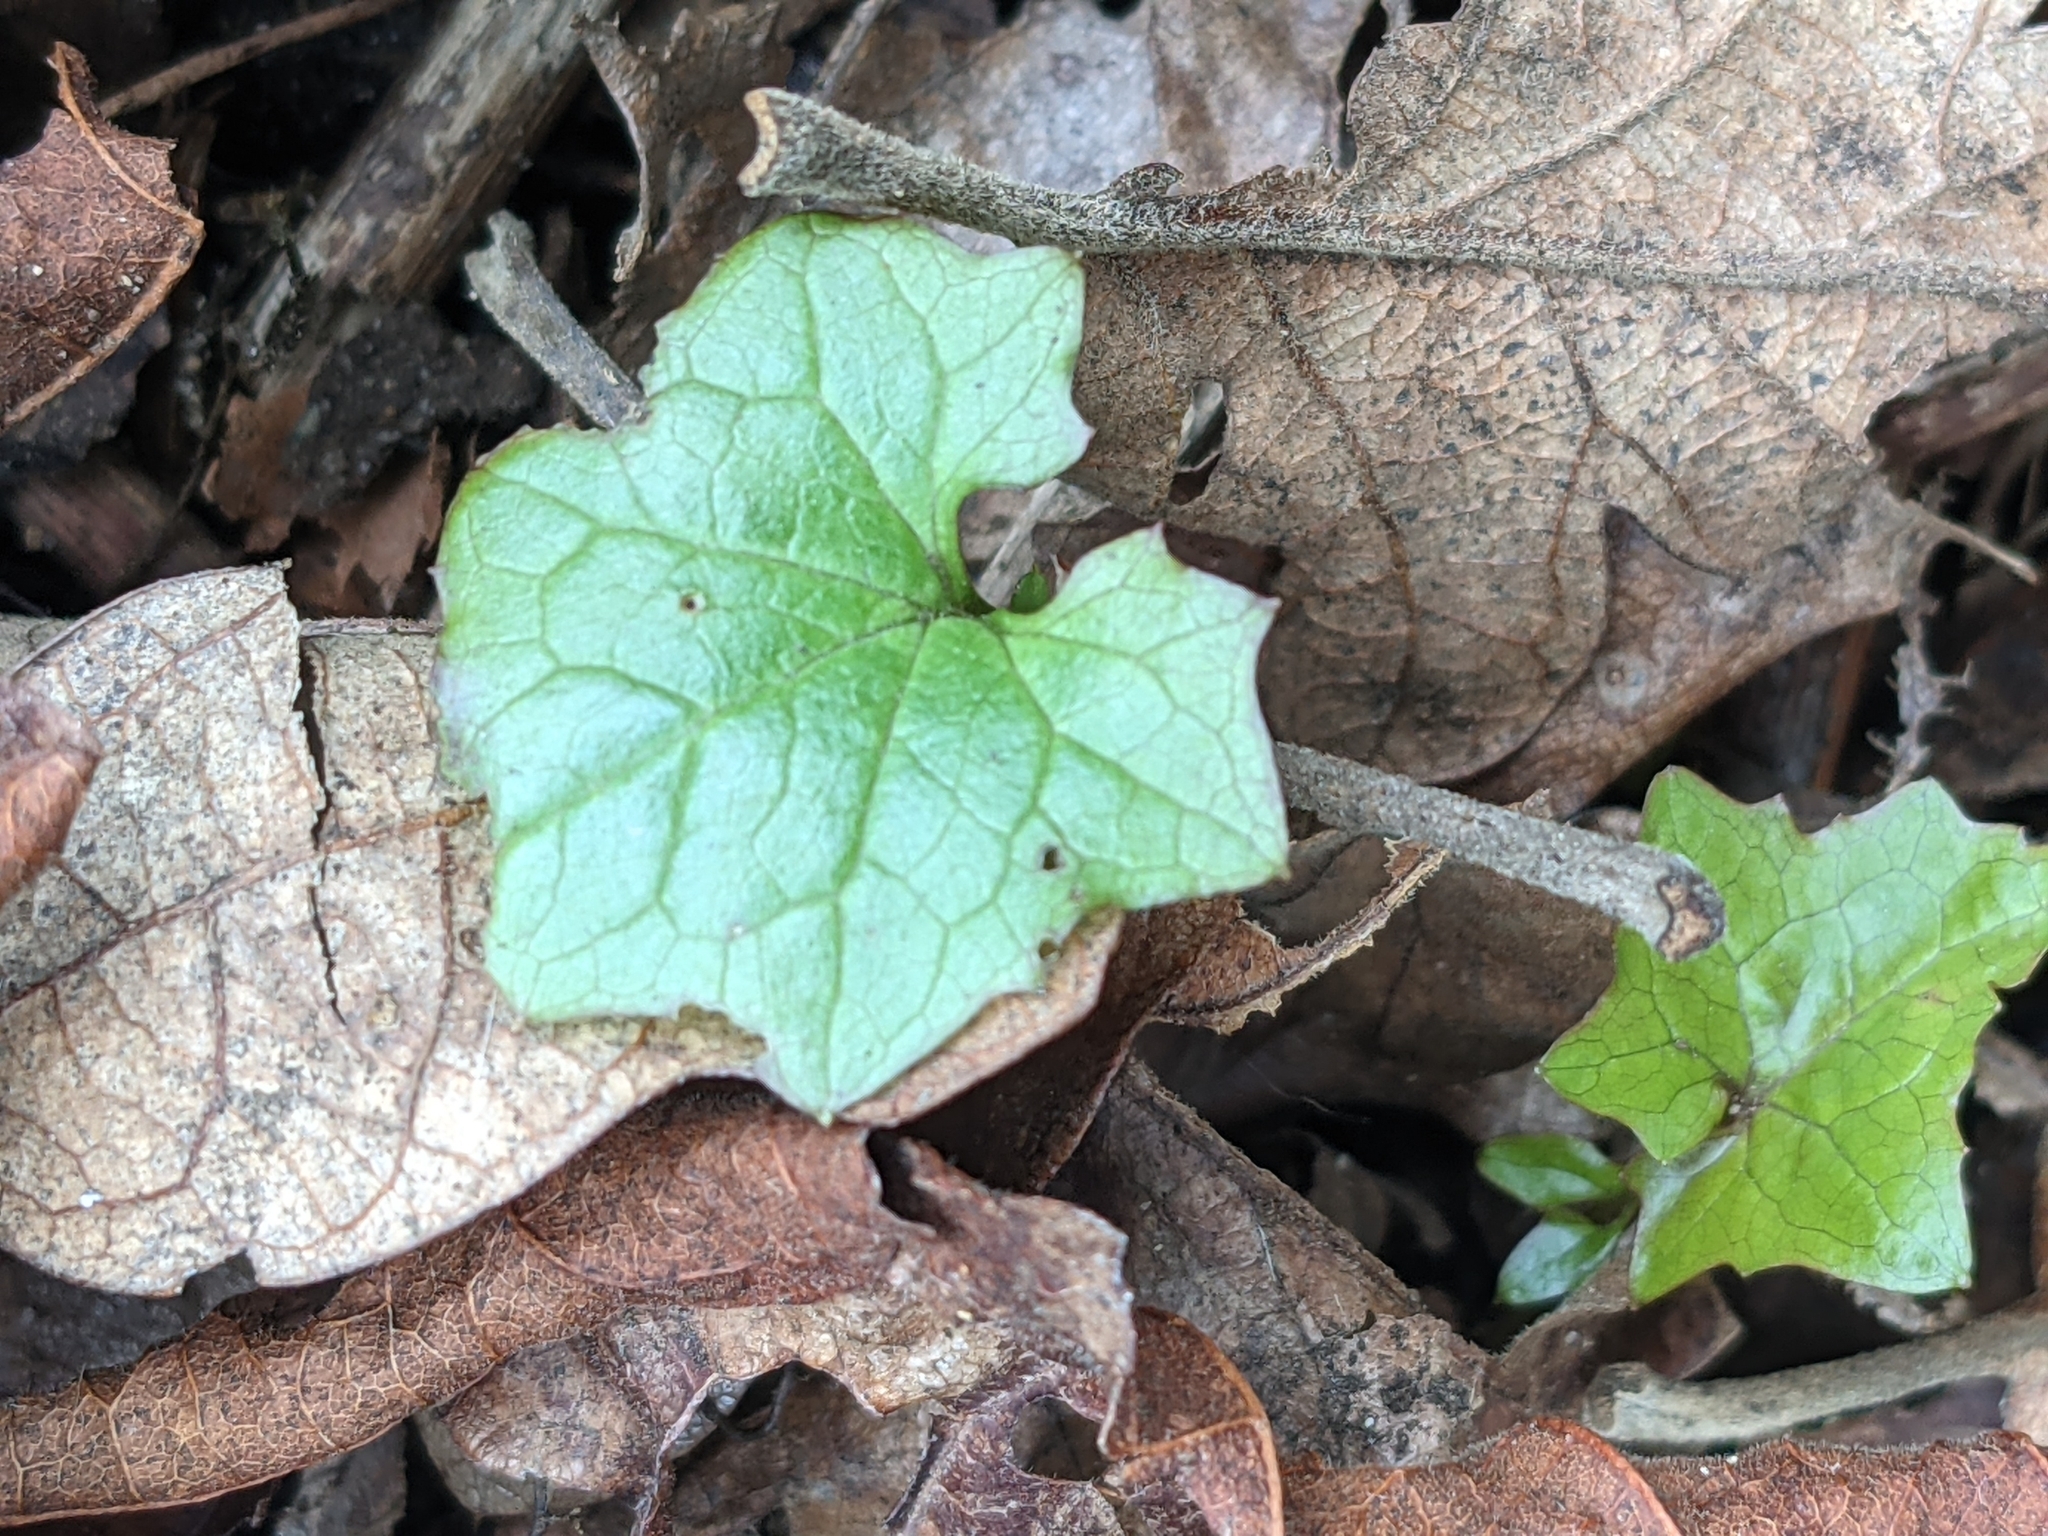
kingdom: Plantae
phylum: Tracheophyta
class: Magnoliopsida
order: Asterales
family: Asteraceae
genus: Mycelis
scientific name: Mycelis muralis
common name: Wall lettuce
